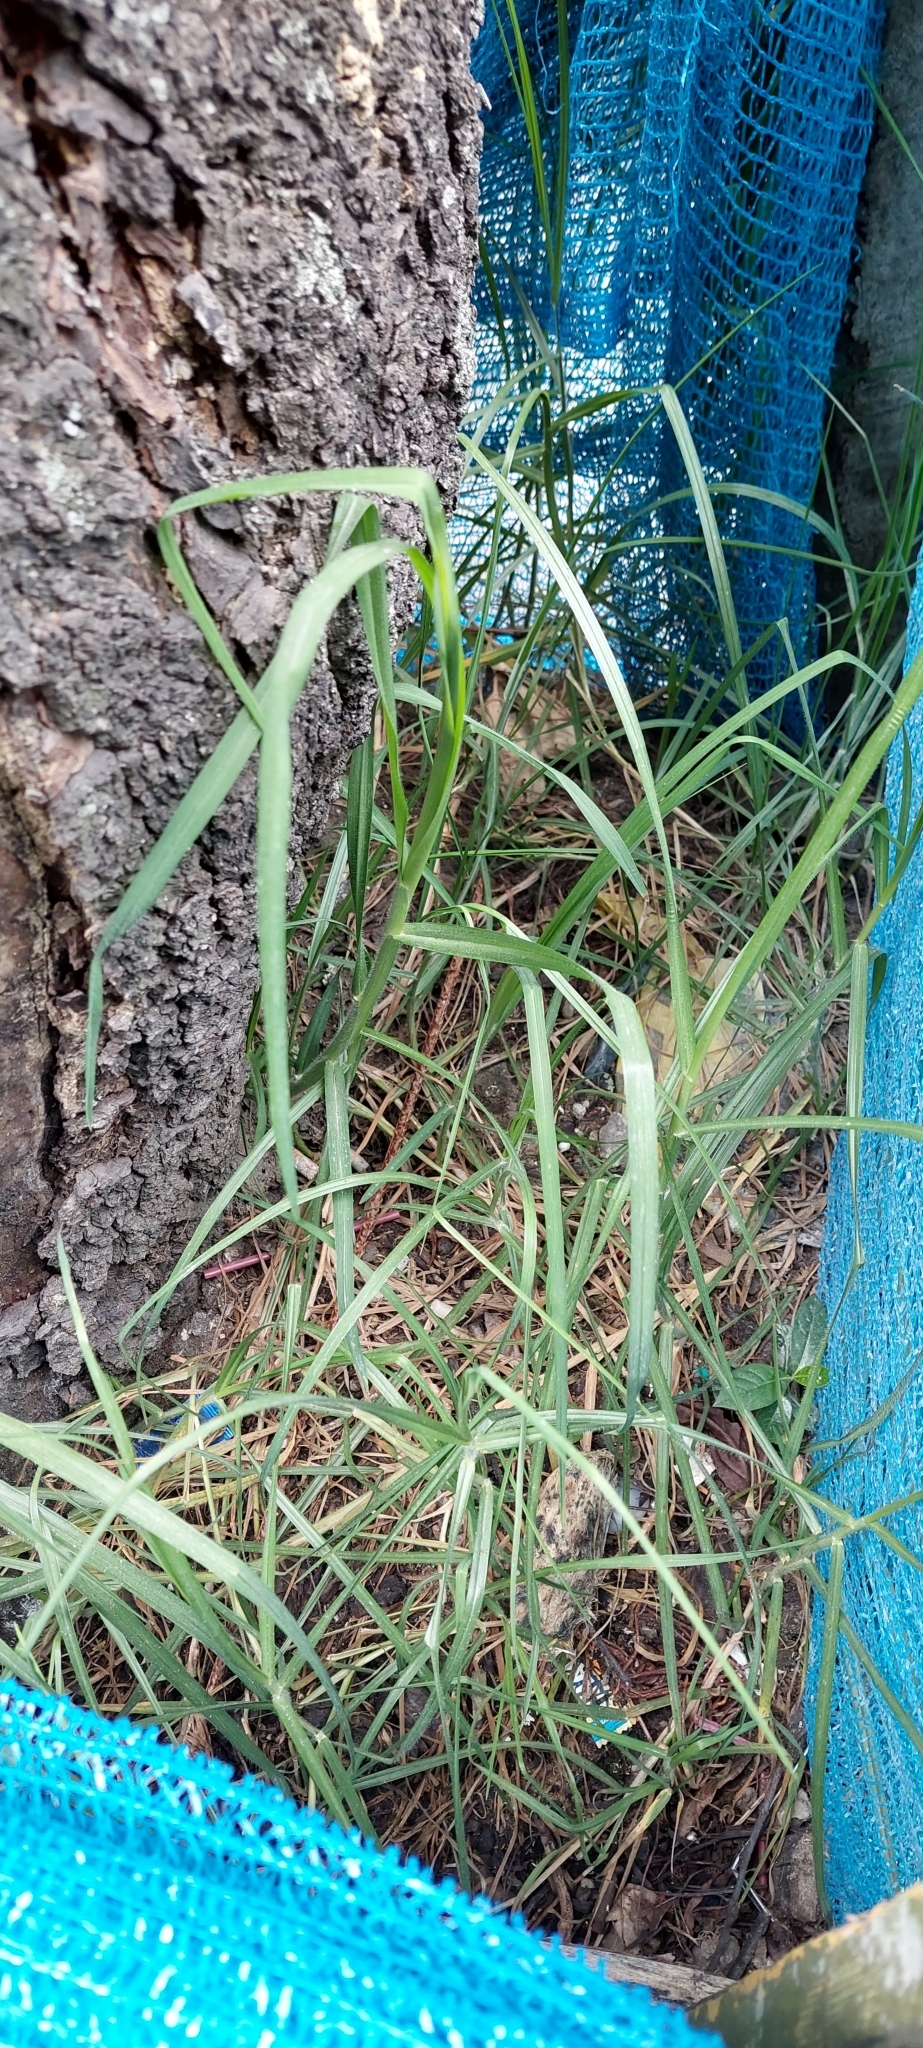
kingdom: Plantae
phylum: Tracheophyta
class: Liliopsida
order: Poales
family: Poaceae
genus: Cenchrus
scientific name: Cenchrus clandestinus
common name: Kikuyugrass
